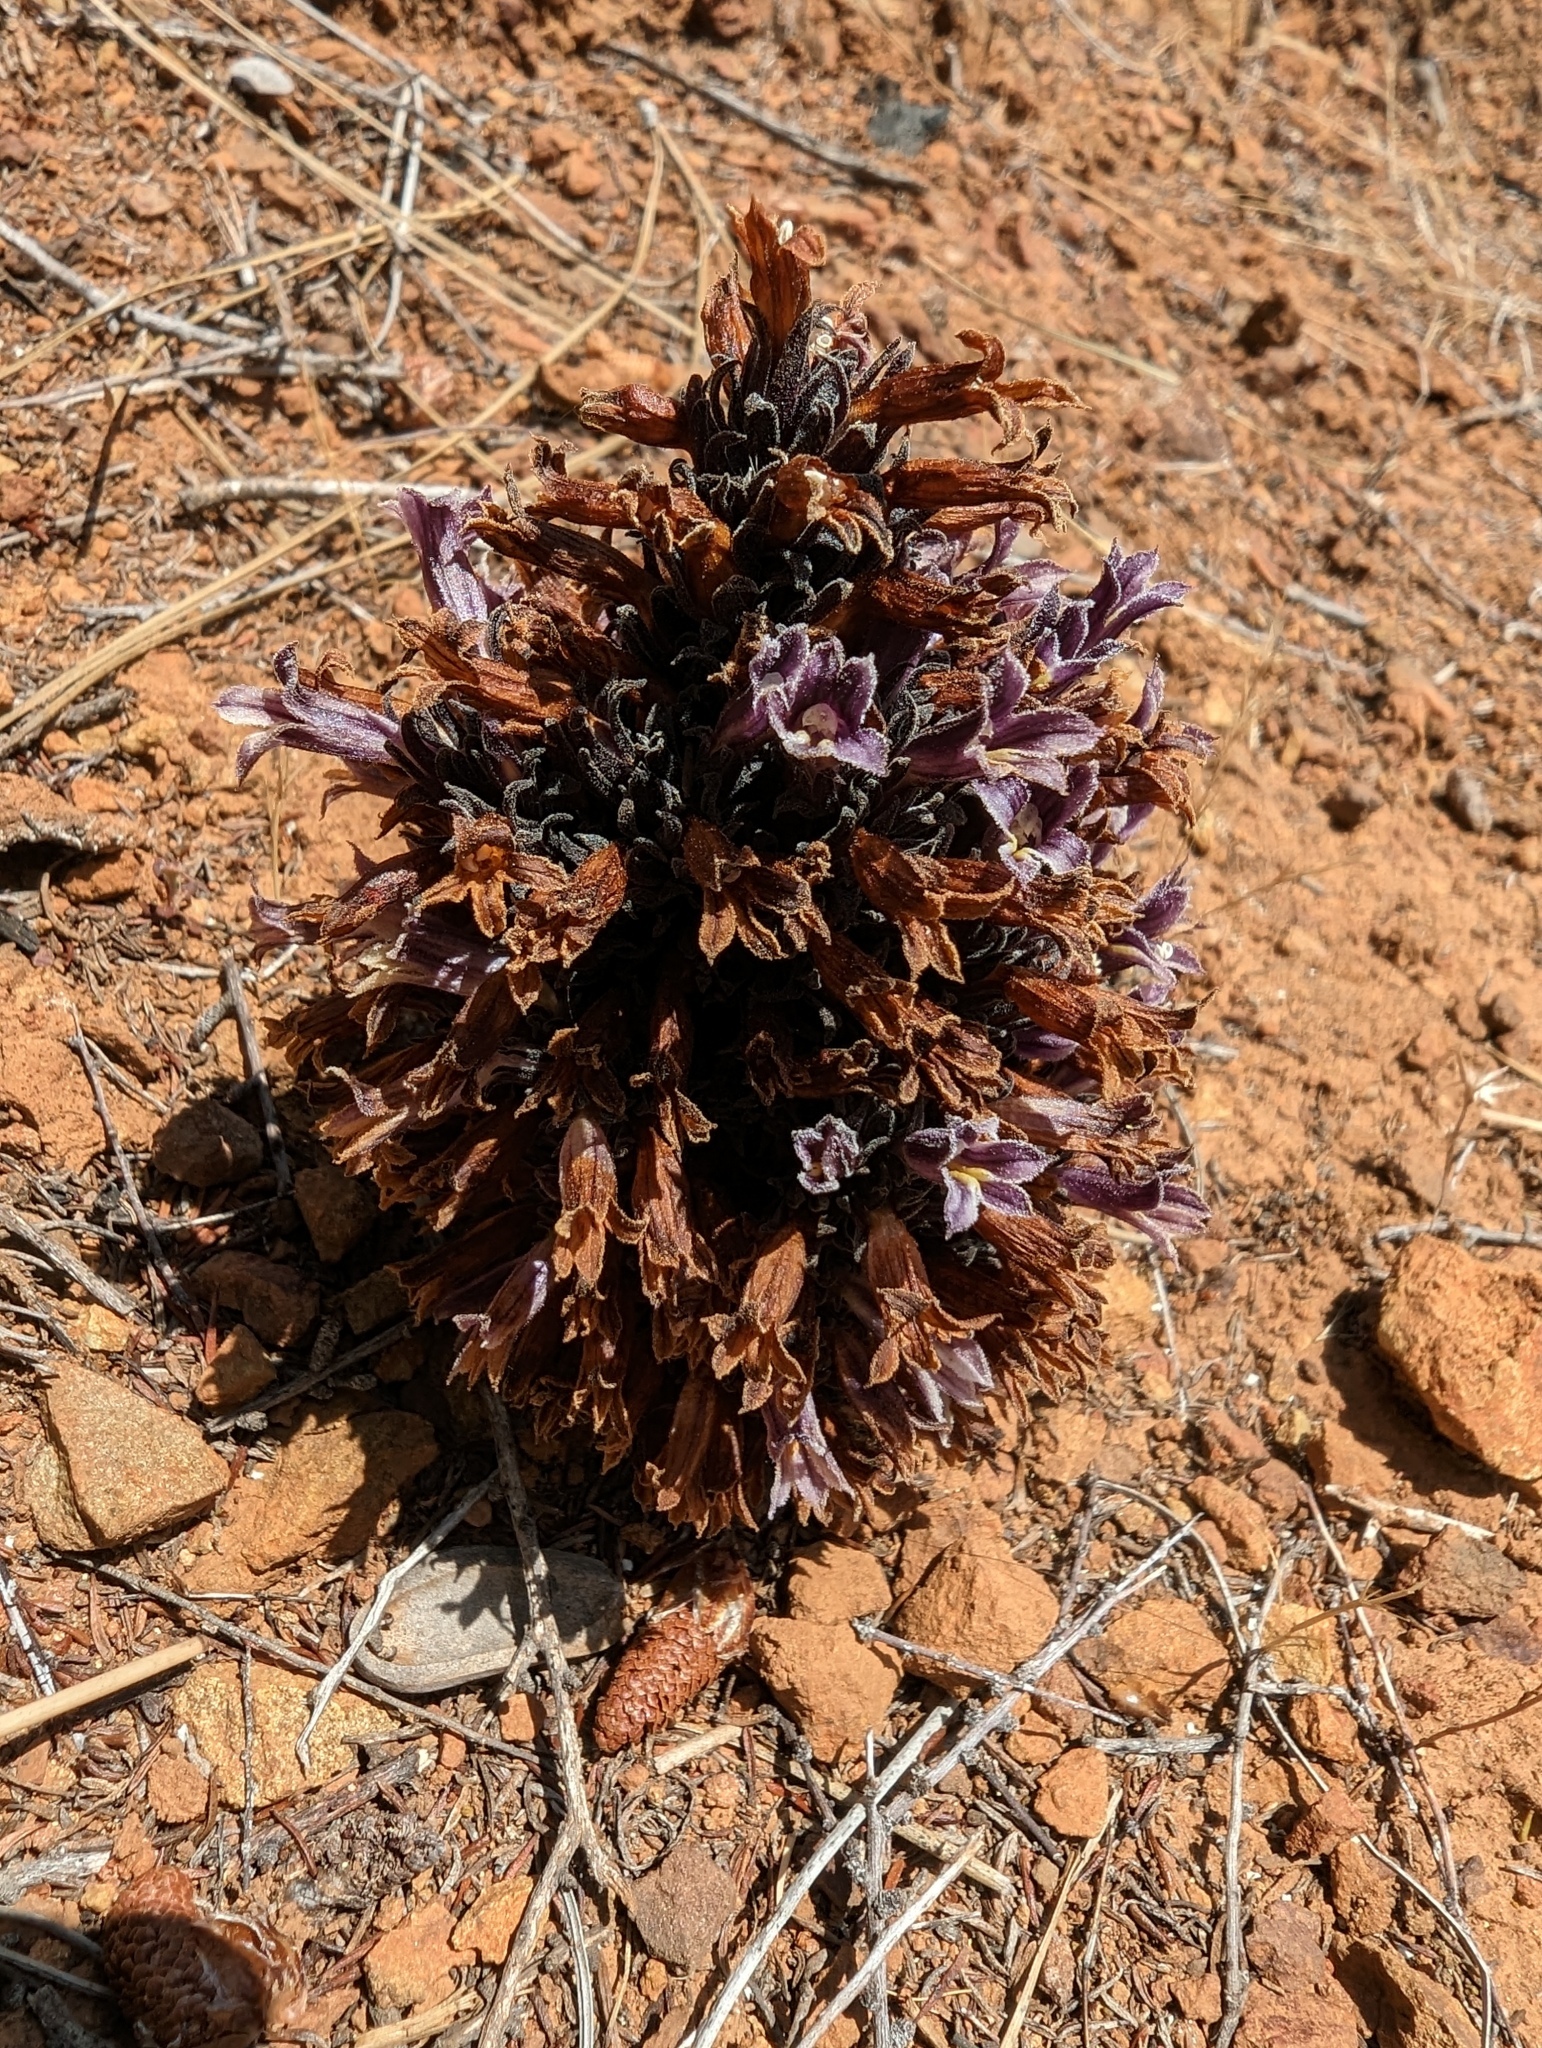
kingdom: Plantae
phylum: Tracheophyta
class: Magnoliopsida
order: Lamiales
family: Orobanchaceae
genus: Aphyllon
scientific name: Aphyllon tuberosum
